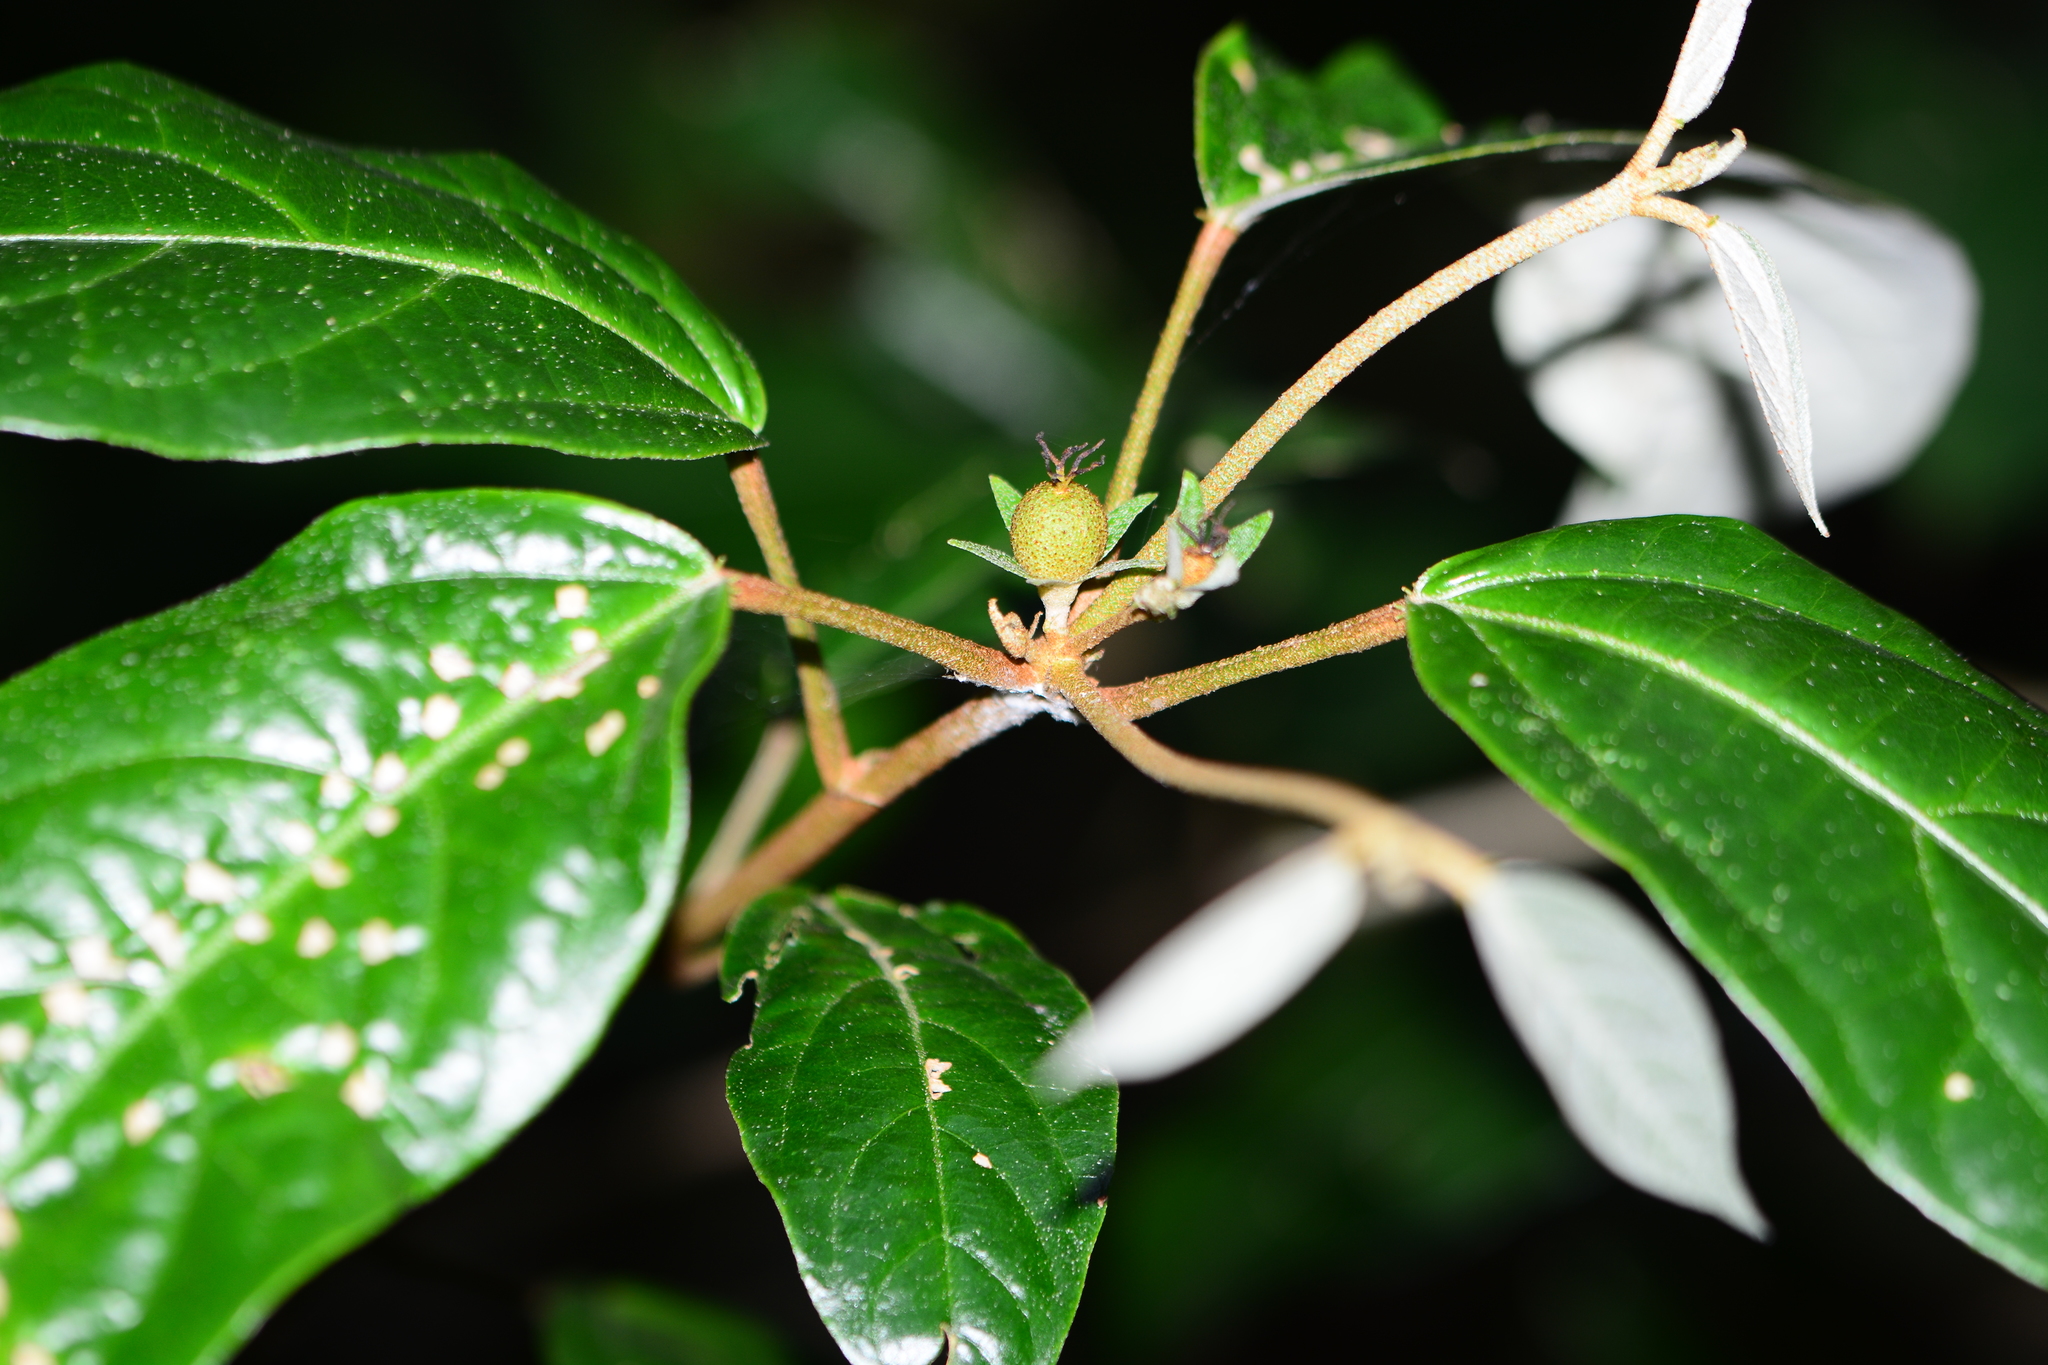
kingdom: Plantae
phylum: Tracheophyta
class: Magnoliopsida
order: Malpighiales
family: Euphorbiaceae
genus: Croton
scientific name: Croton zeylanicus
